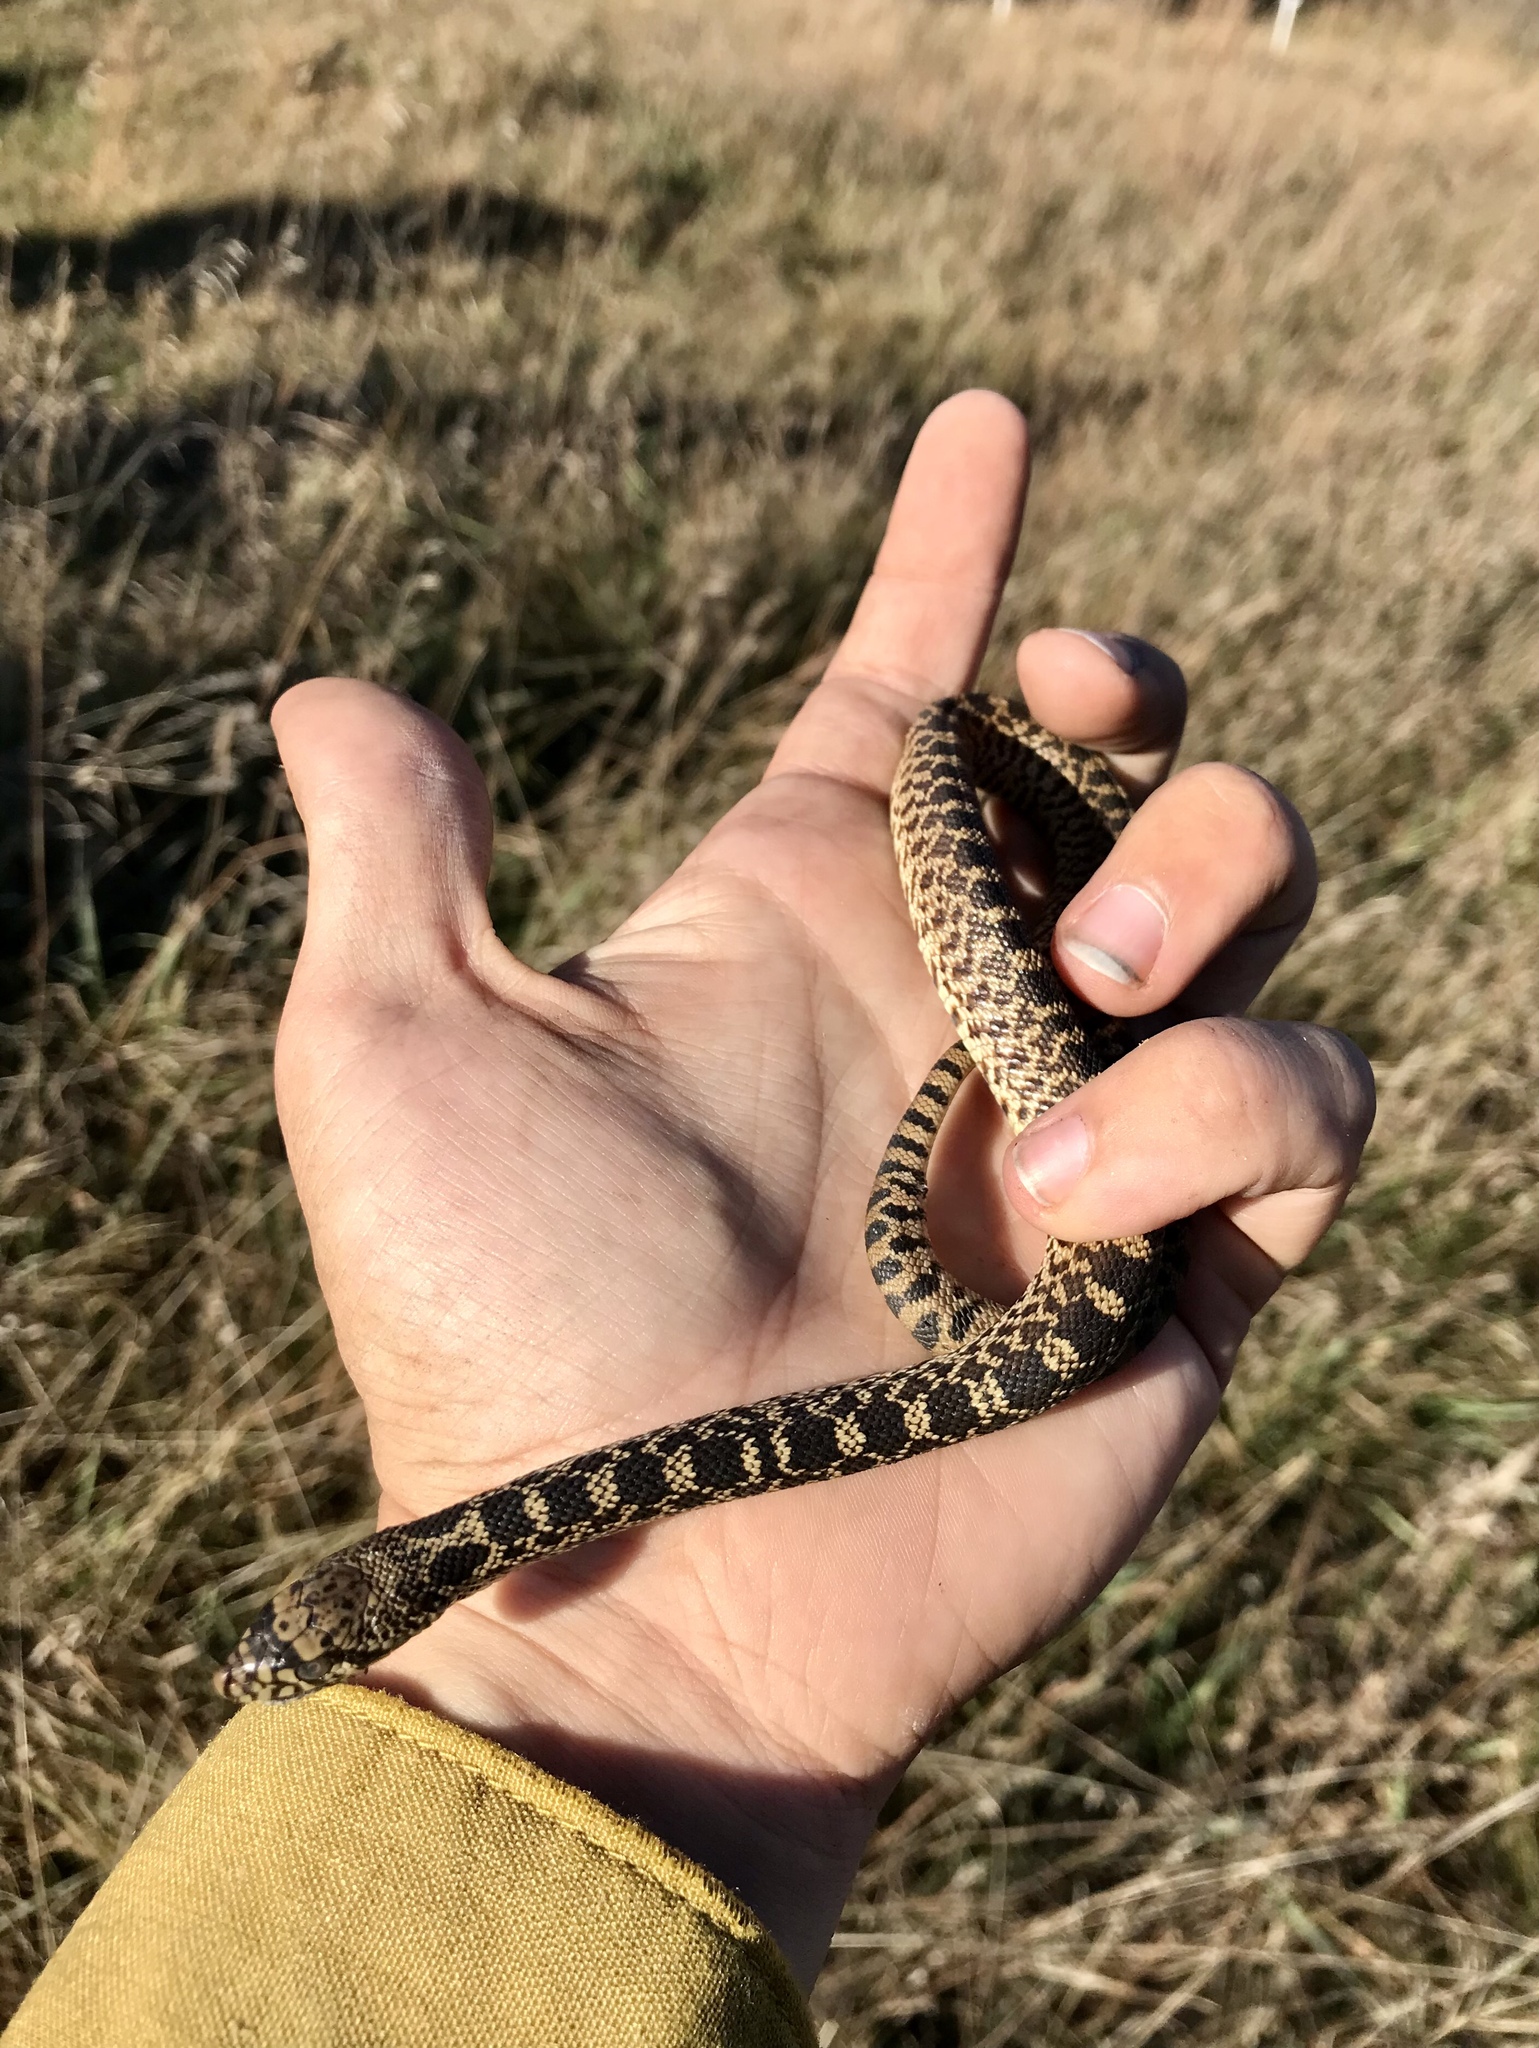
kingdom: Animalia
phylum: Chordata
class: Squamata
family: Colubridae
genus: Pituophis
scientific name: Pituophis catenifer
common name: Gopher snake
